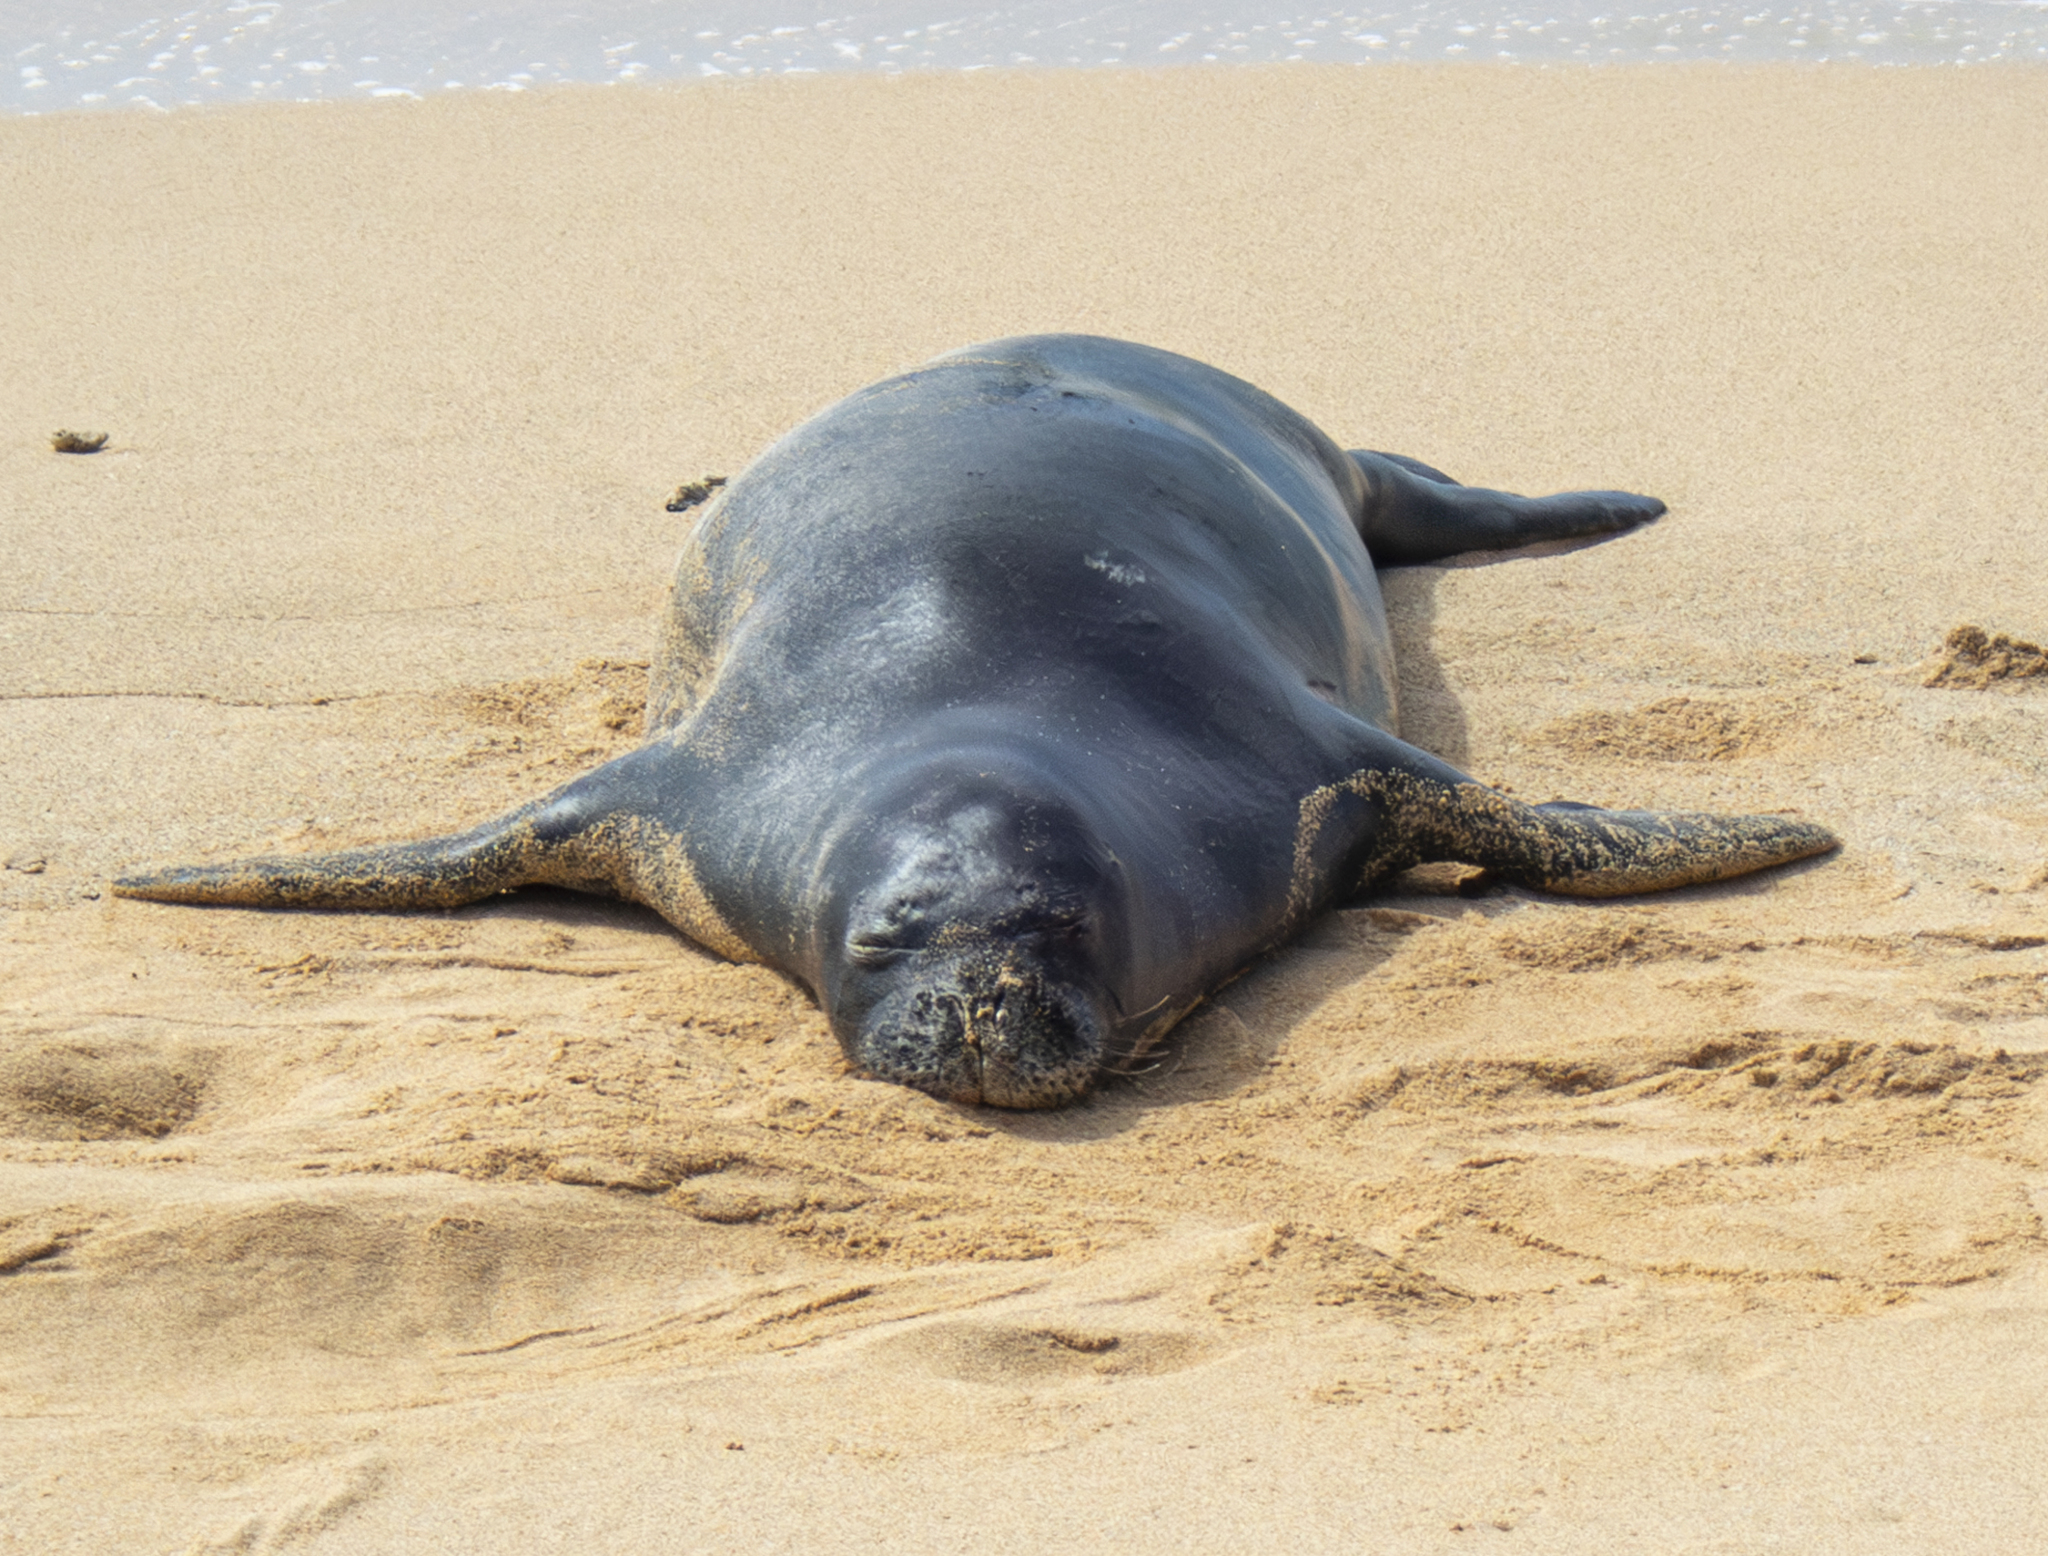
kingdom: Animalia
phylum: Chordata
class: Mammalia
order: Carnivora
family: Phocidae
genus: Neomonachus
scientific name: Neomonachus schauinslandi
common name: Hawaiian monk seal
